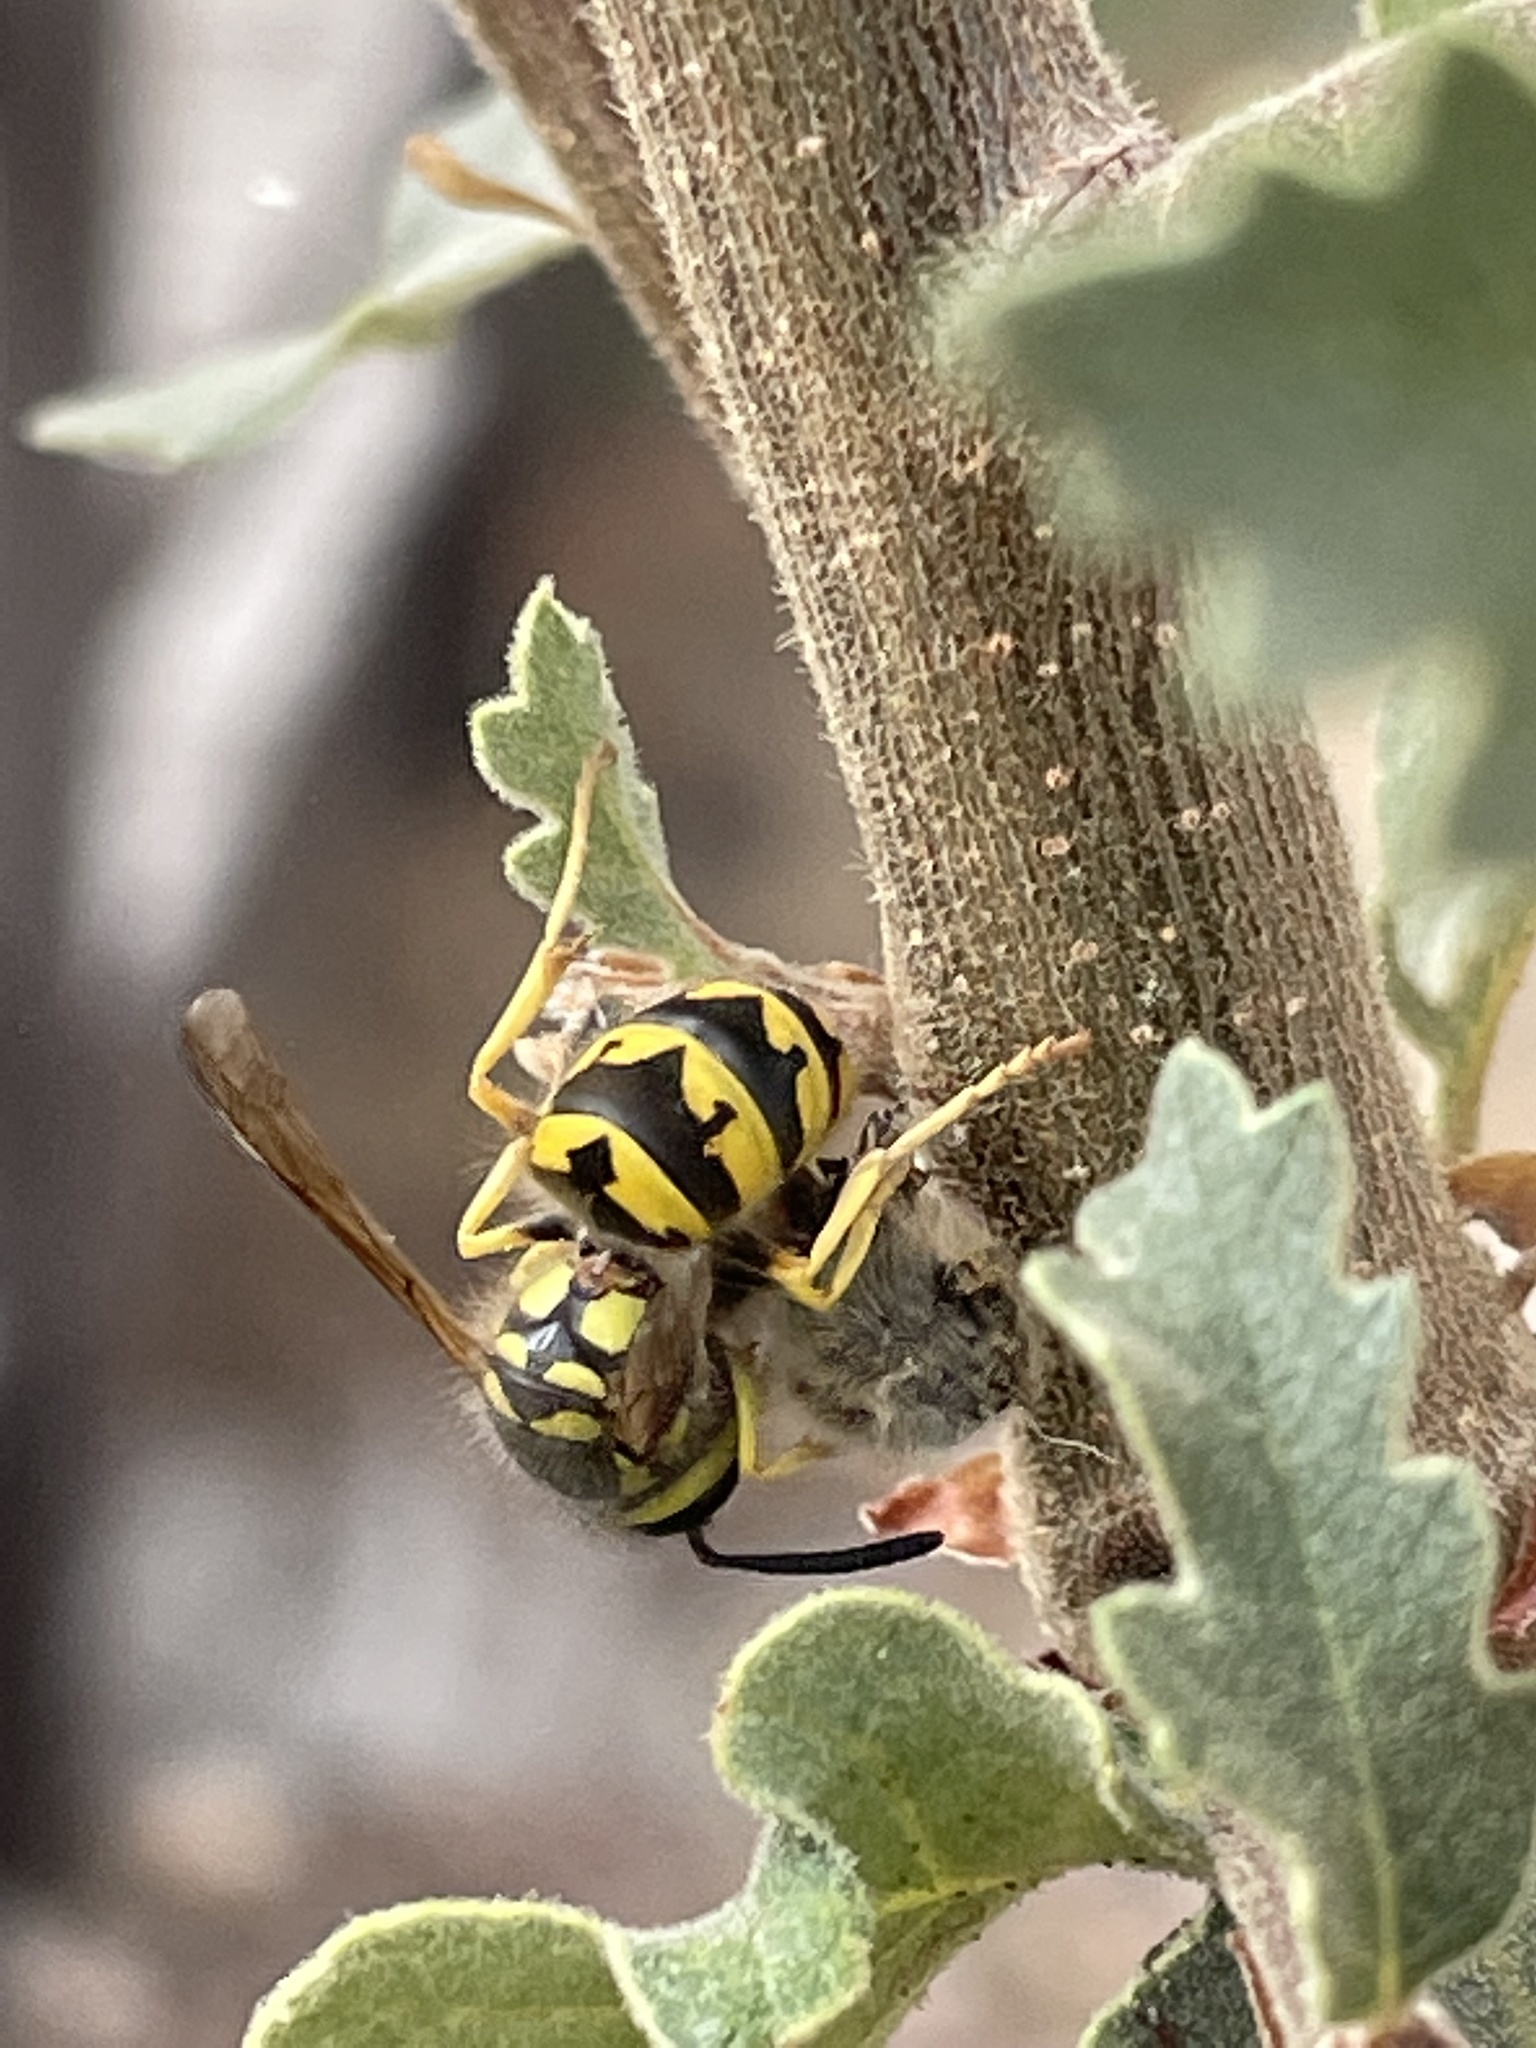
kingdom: Animalia
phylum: Arthropoda
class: Insecta
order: Hymenoptera
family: Vespidae
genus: Vespula
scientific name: Vespula pensylvanica
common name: Western yellowjacket
